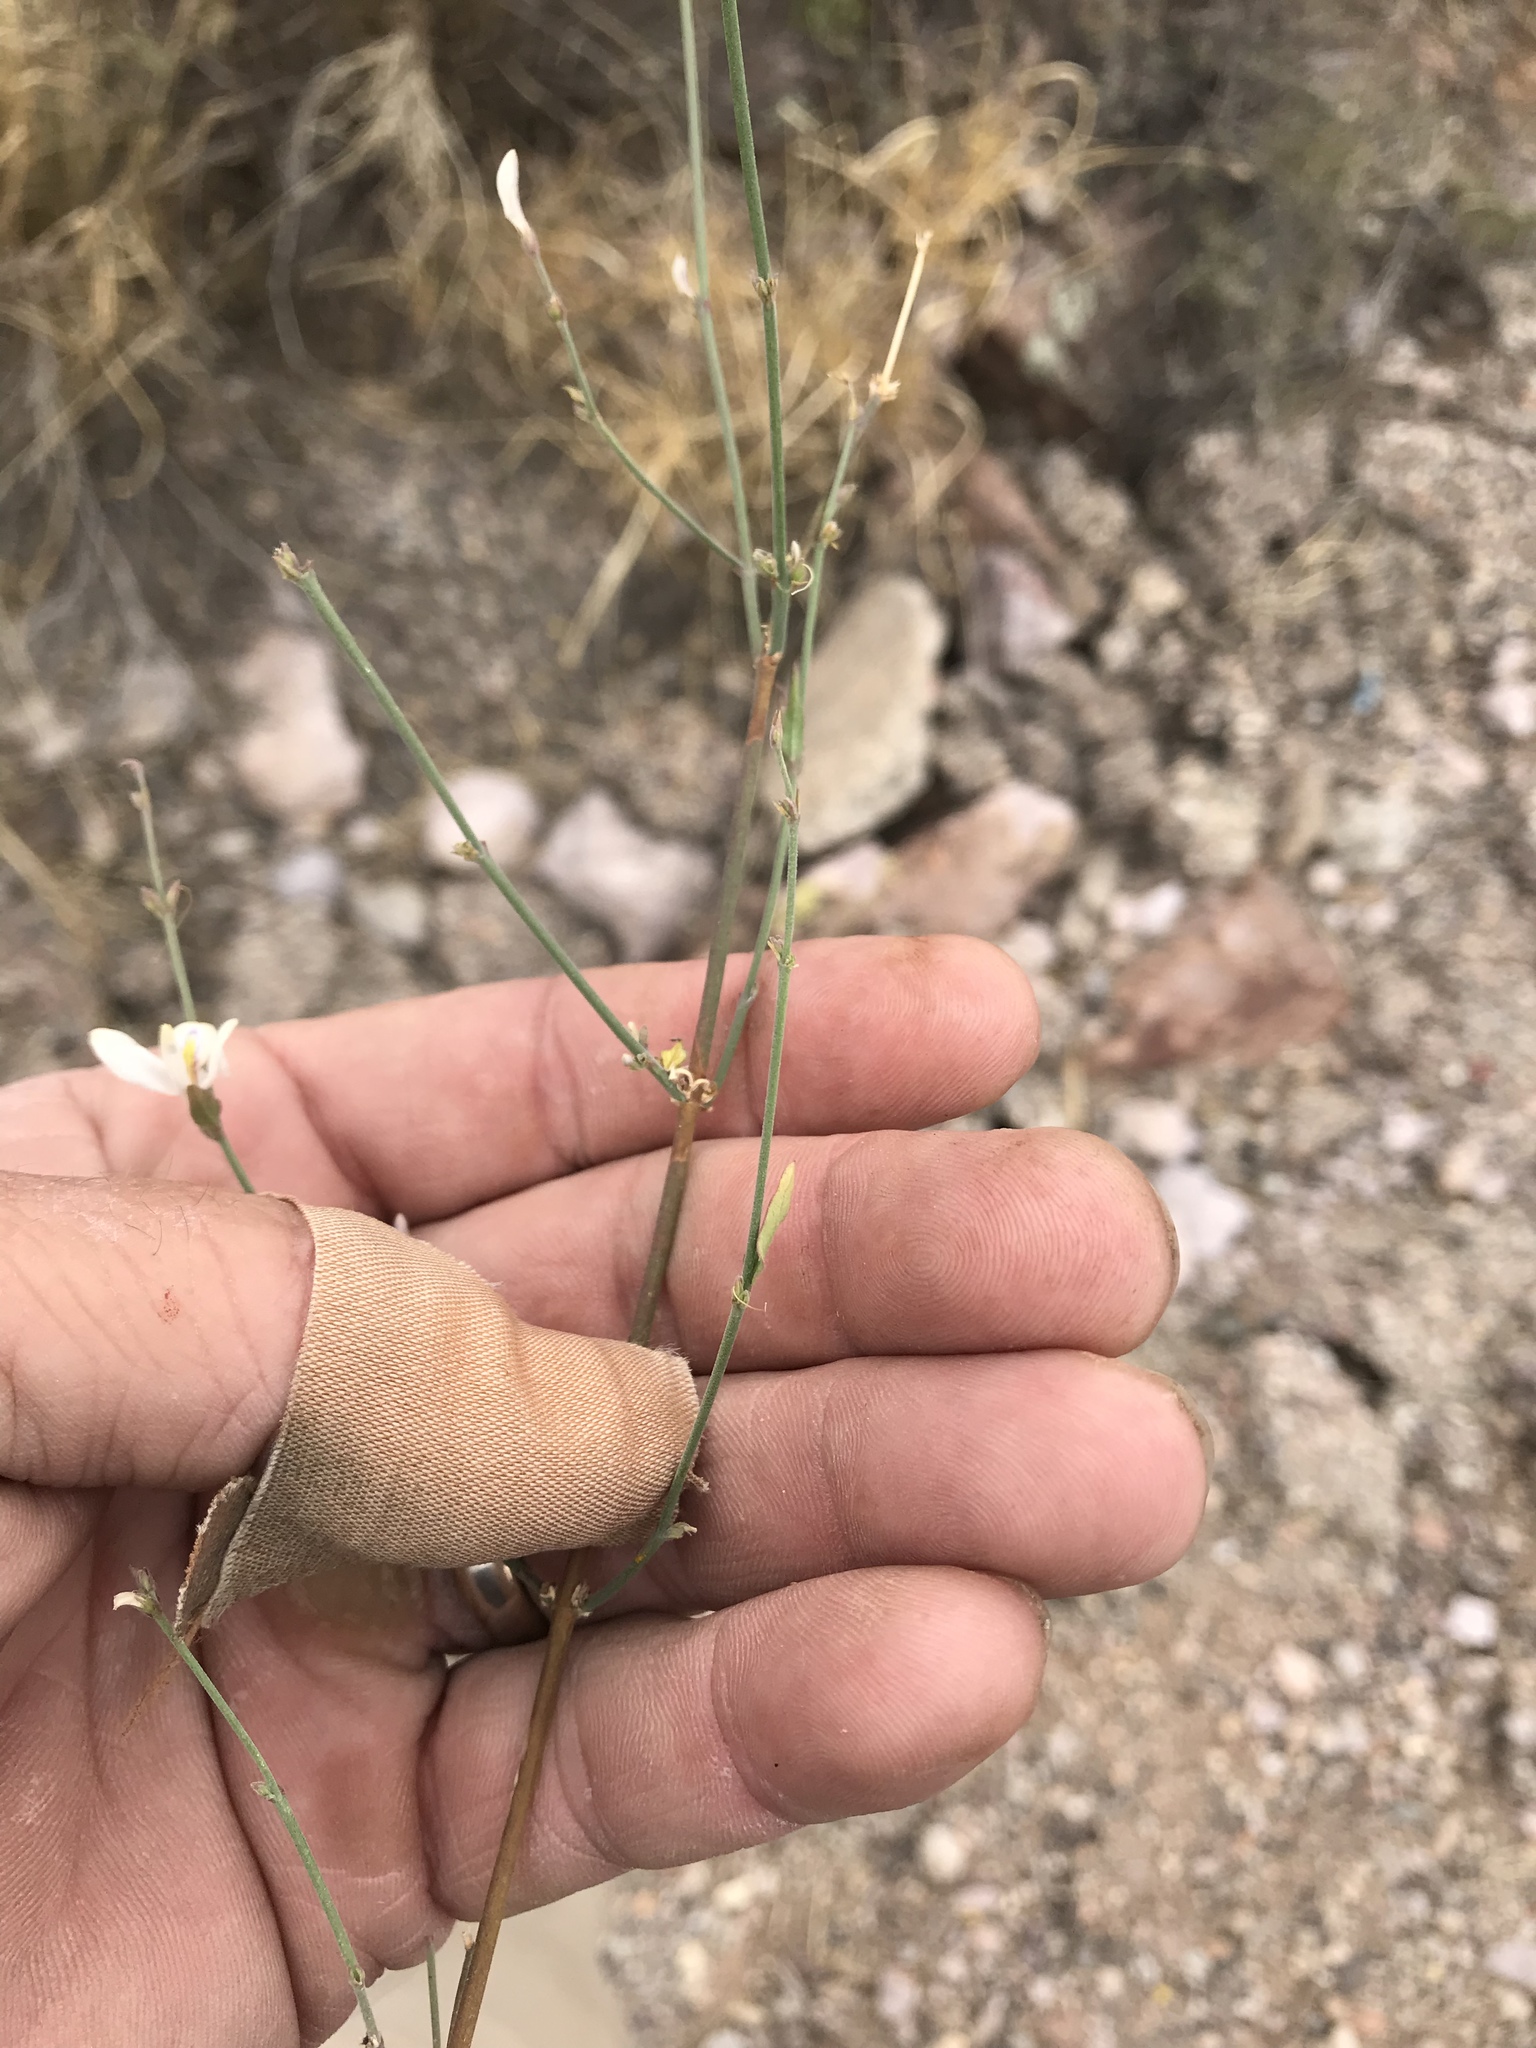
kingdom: Plantae
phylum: Tracheophyta
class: Magnoliopsida
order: Lamiales
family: Acanthaceae
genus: Carlowrightia
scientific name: Carlowrightia arizonica
